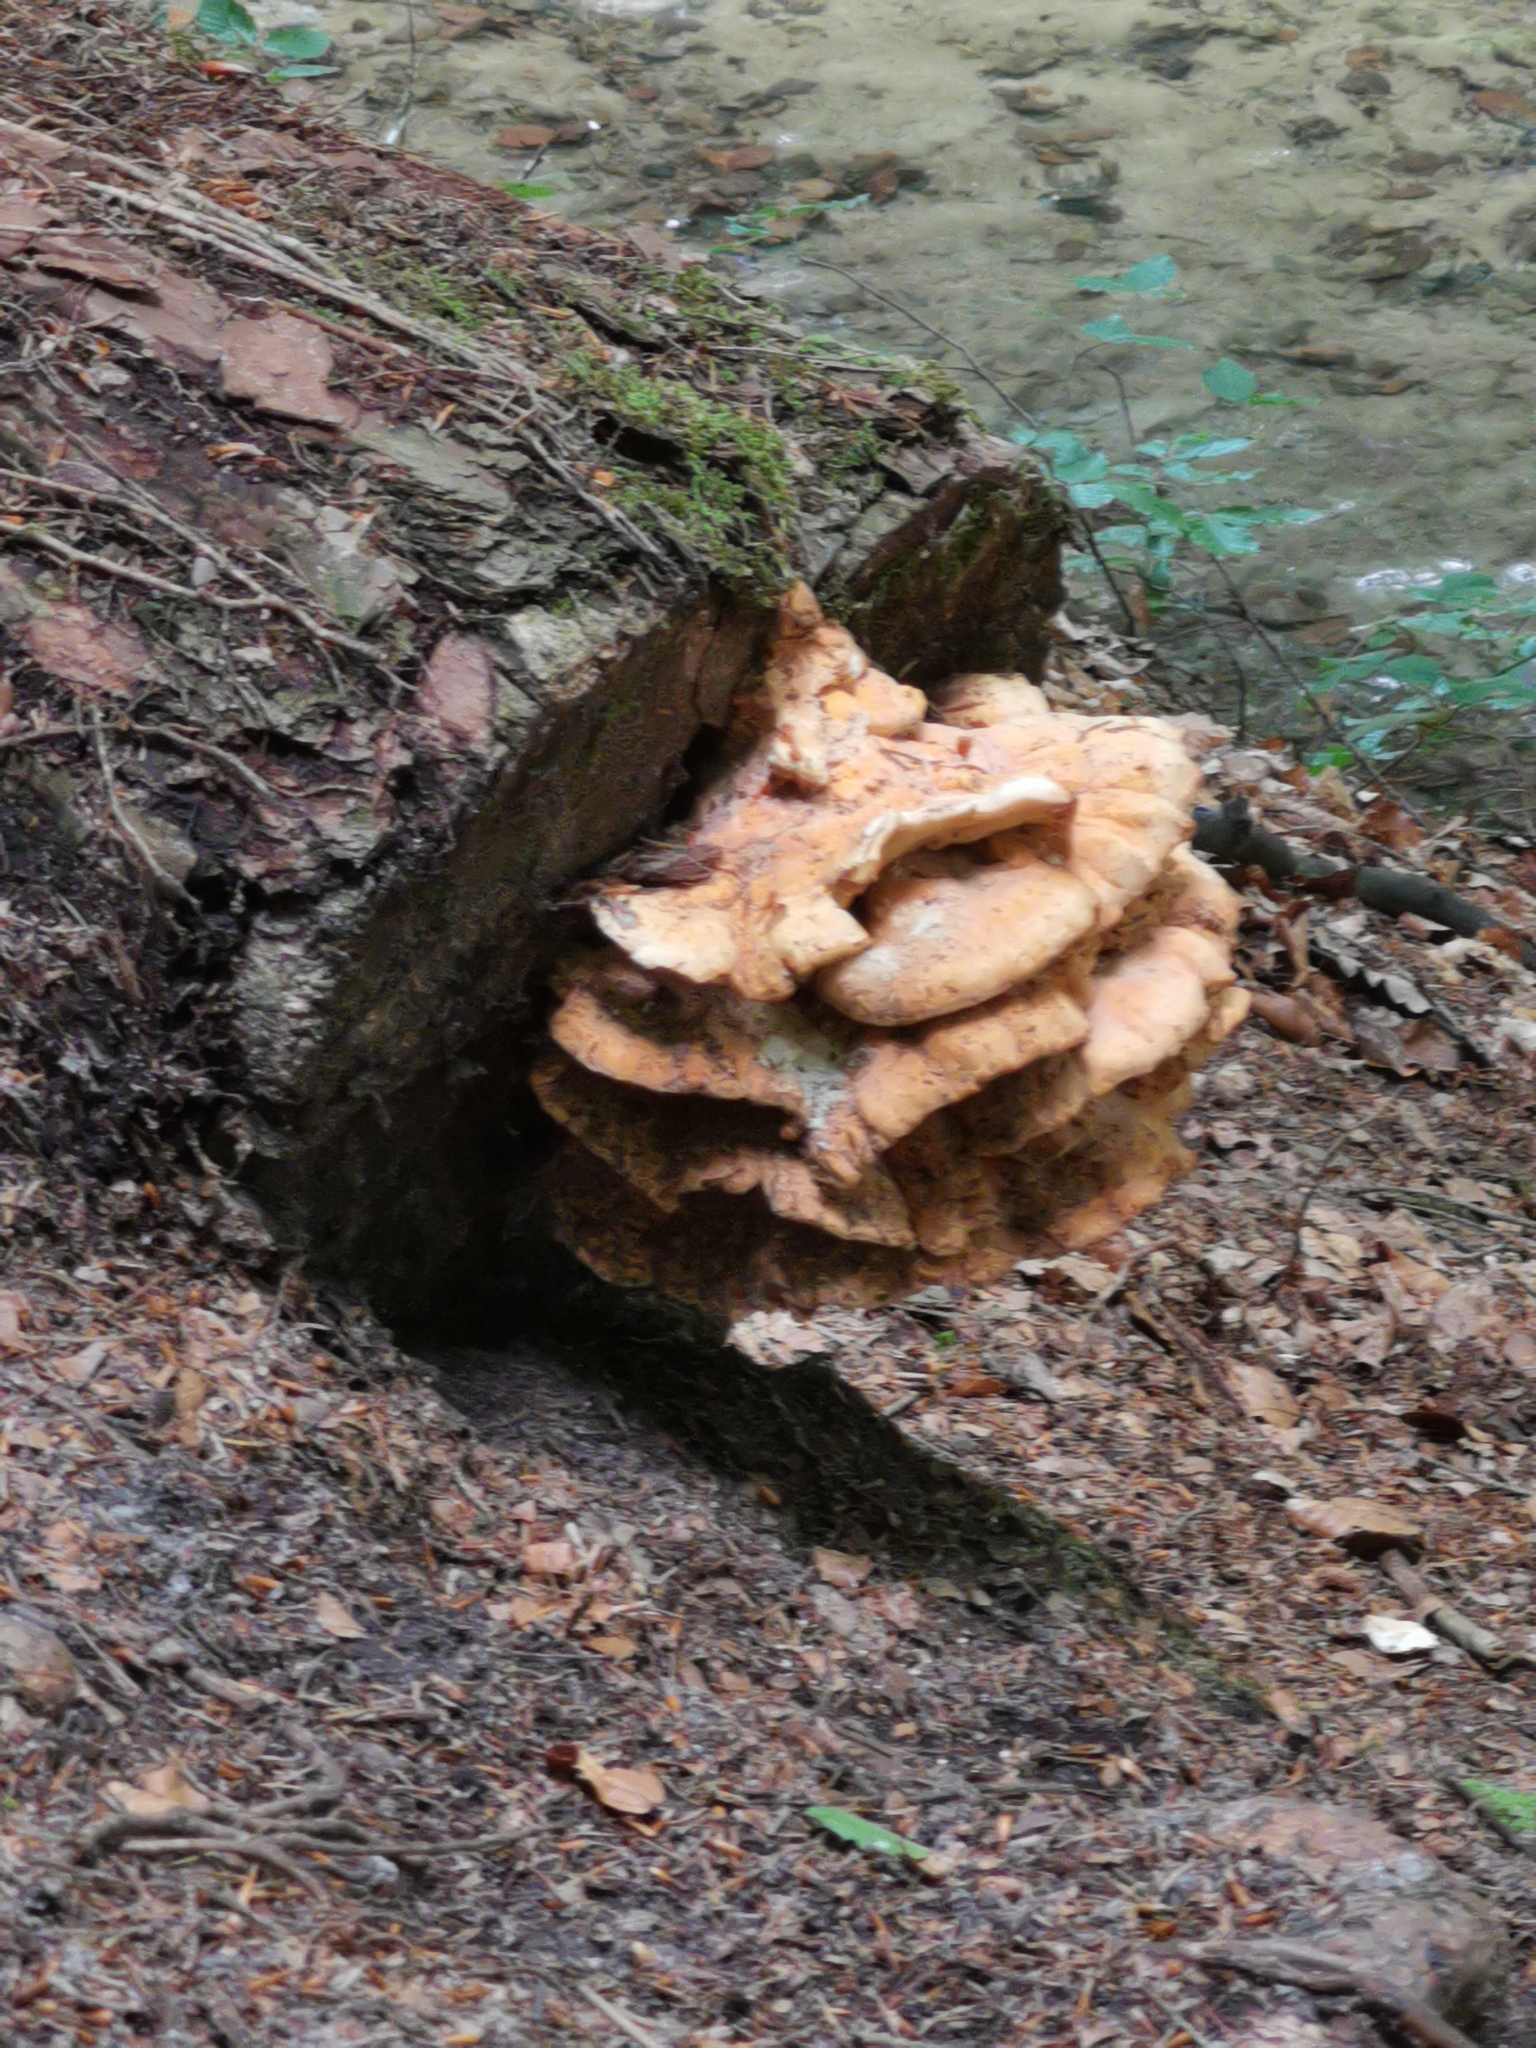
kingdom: Fungi
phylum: Basidiomycota
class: Agaricomycetes
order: Polyporales
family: Laetiporaceae
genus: Laetiporus
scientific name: Laetiporus sulphureus
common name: Chicken of the woods
